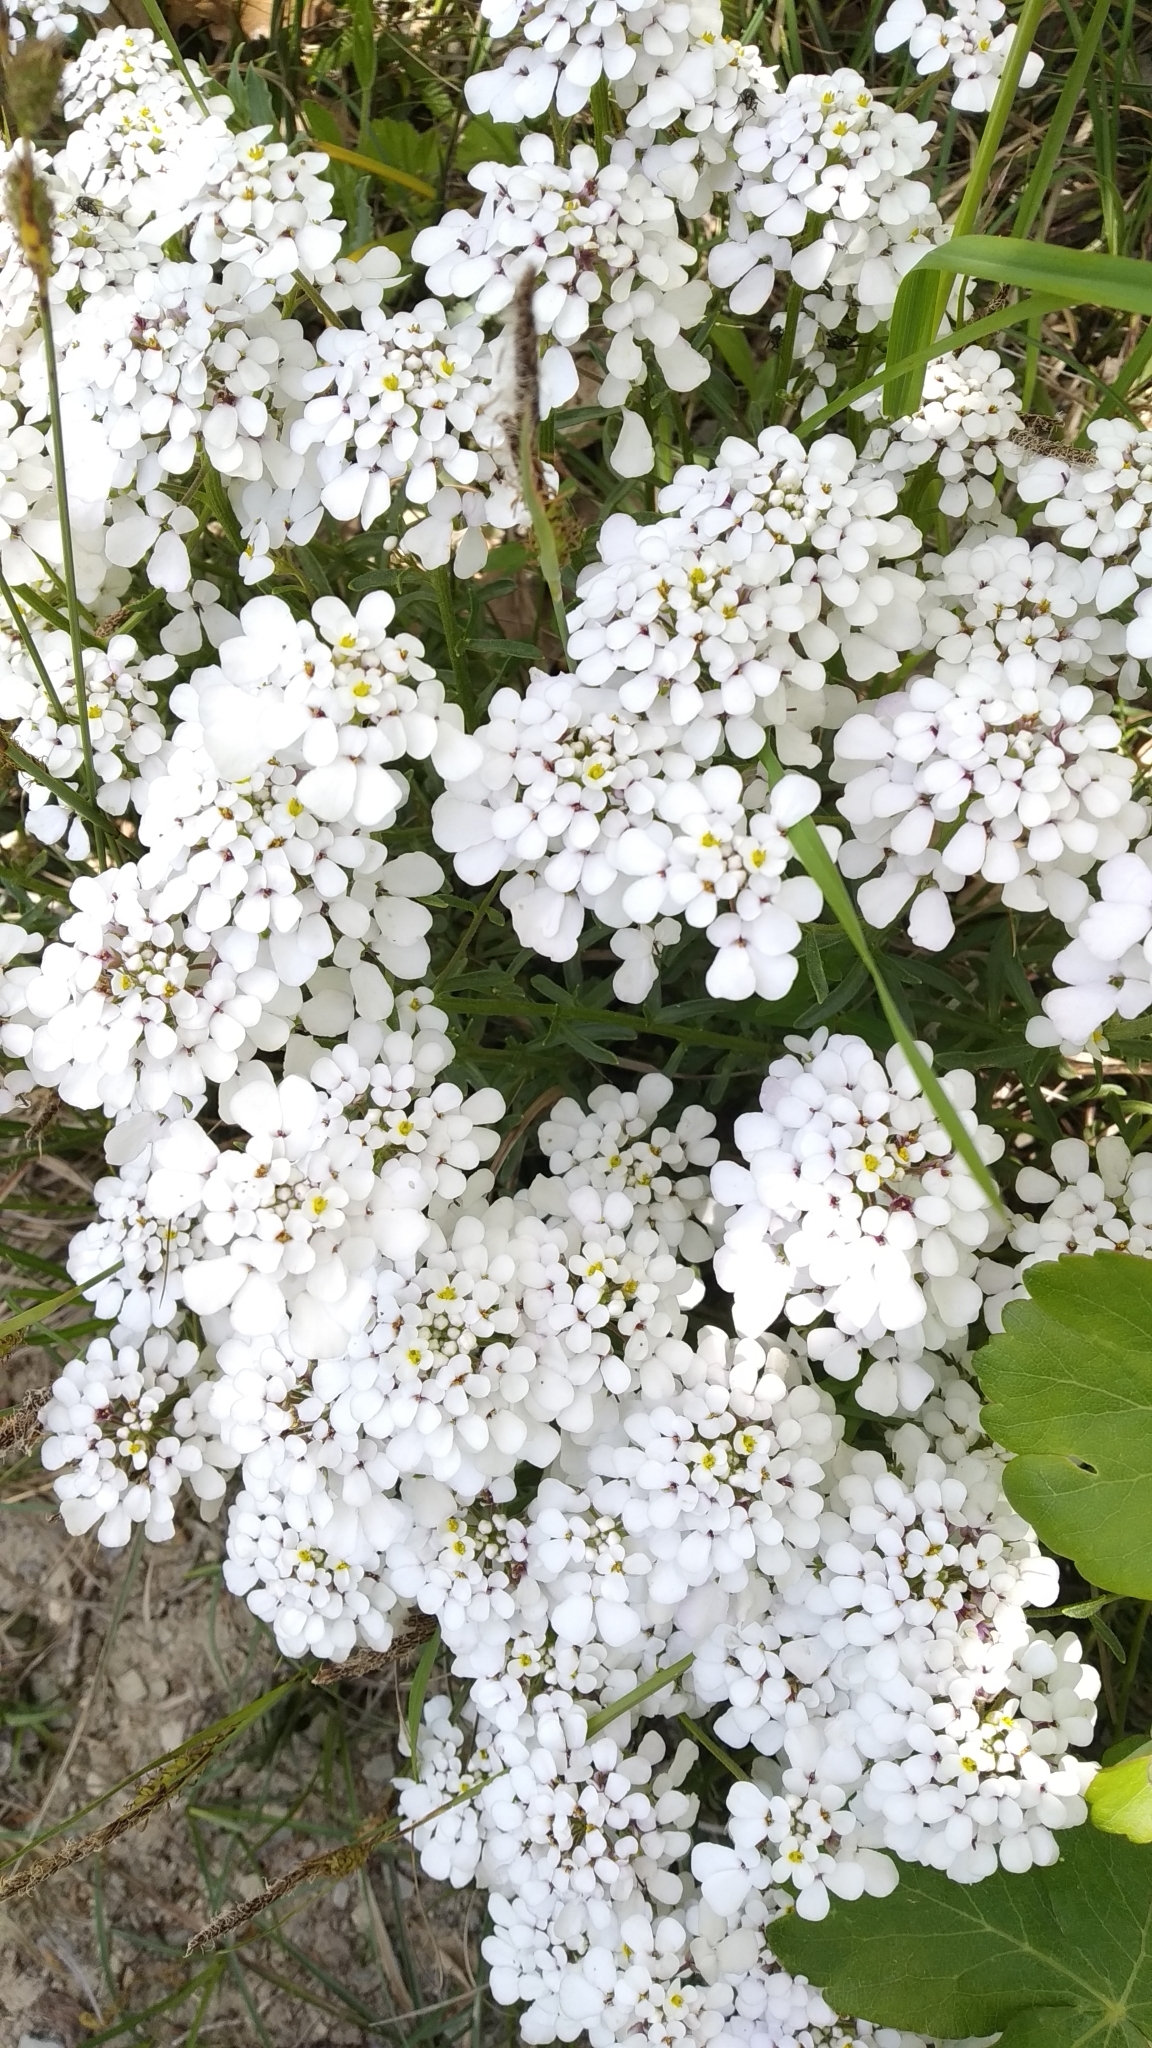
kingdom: Plantae
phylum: Tracheophyta
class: Magnoliopsida
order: Brassicales
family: Brassicaceae
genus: Iberis
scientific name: Iberis simplex
